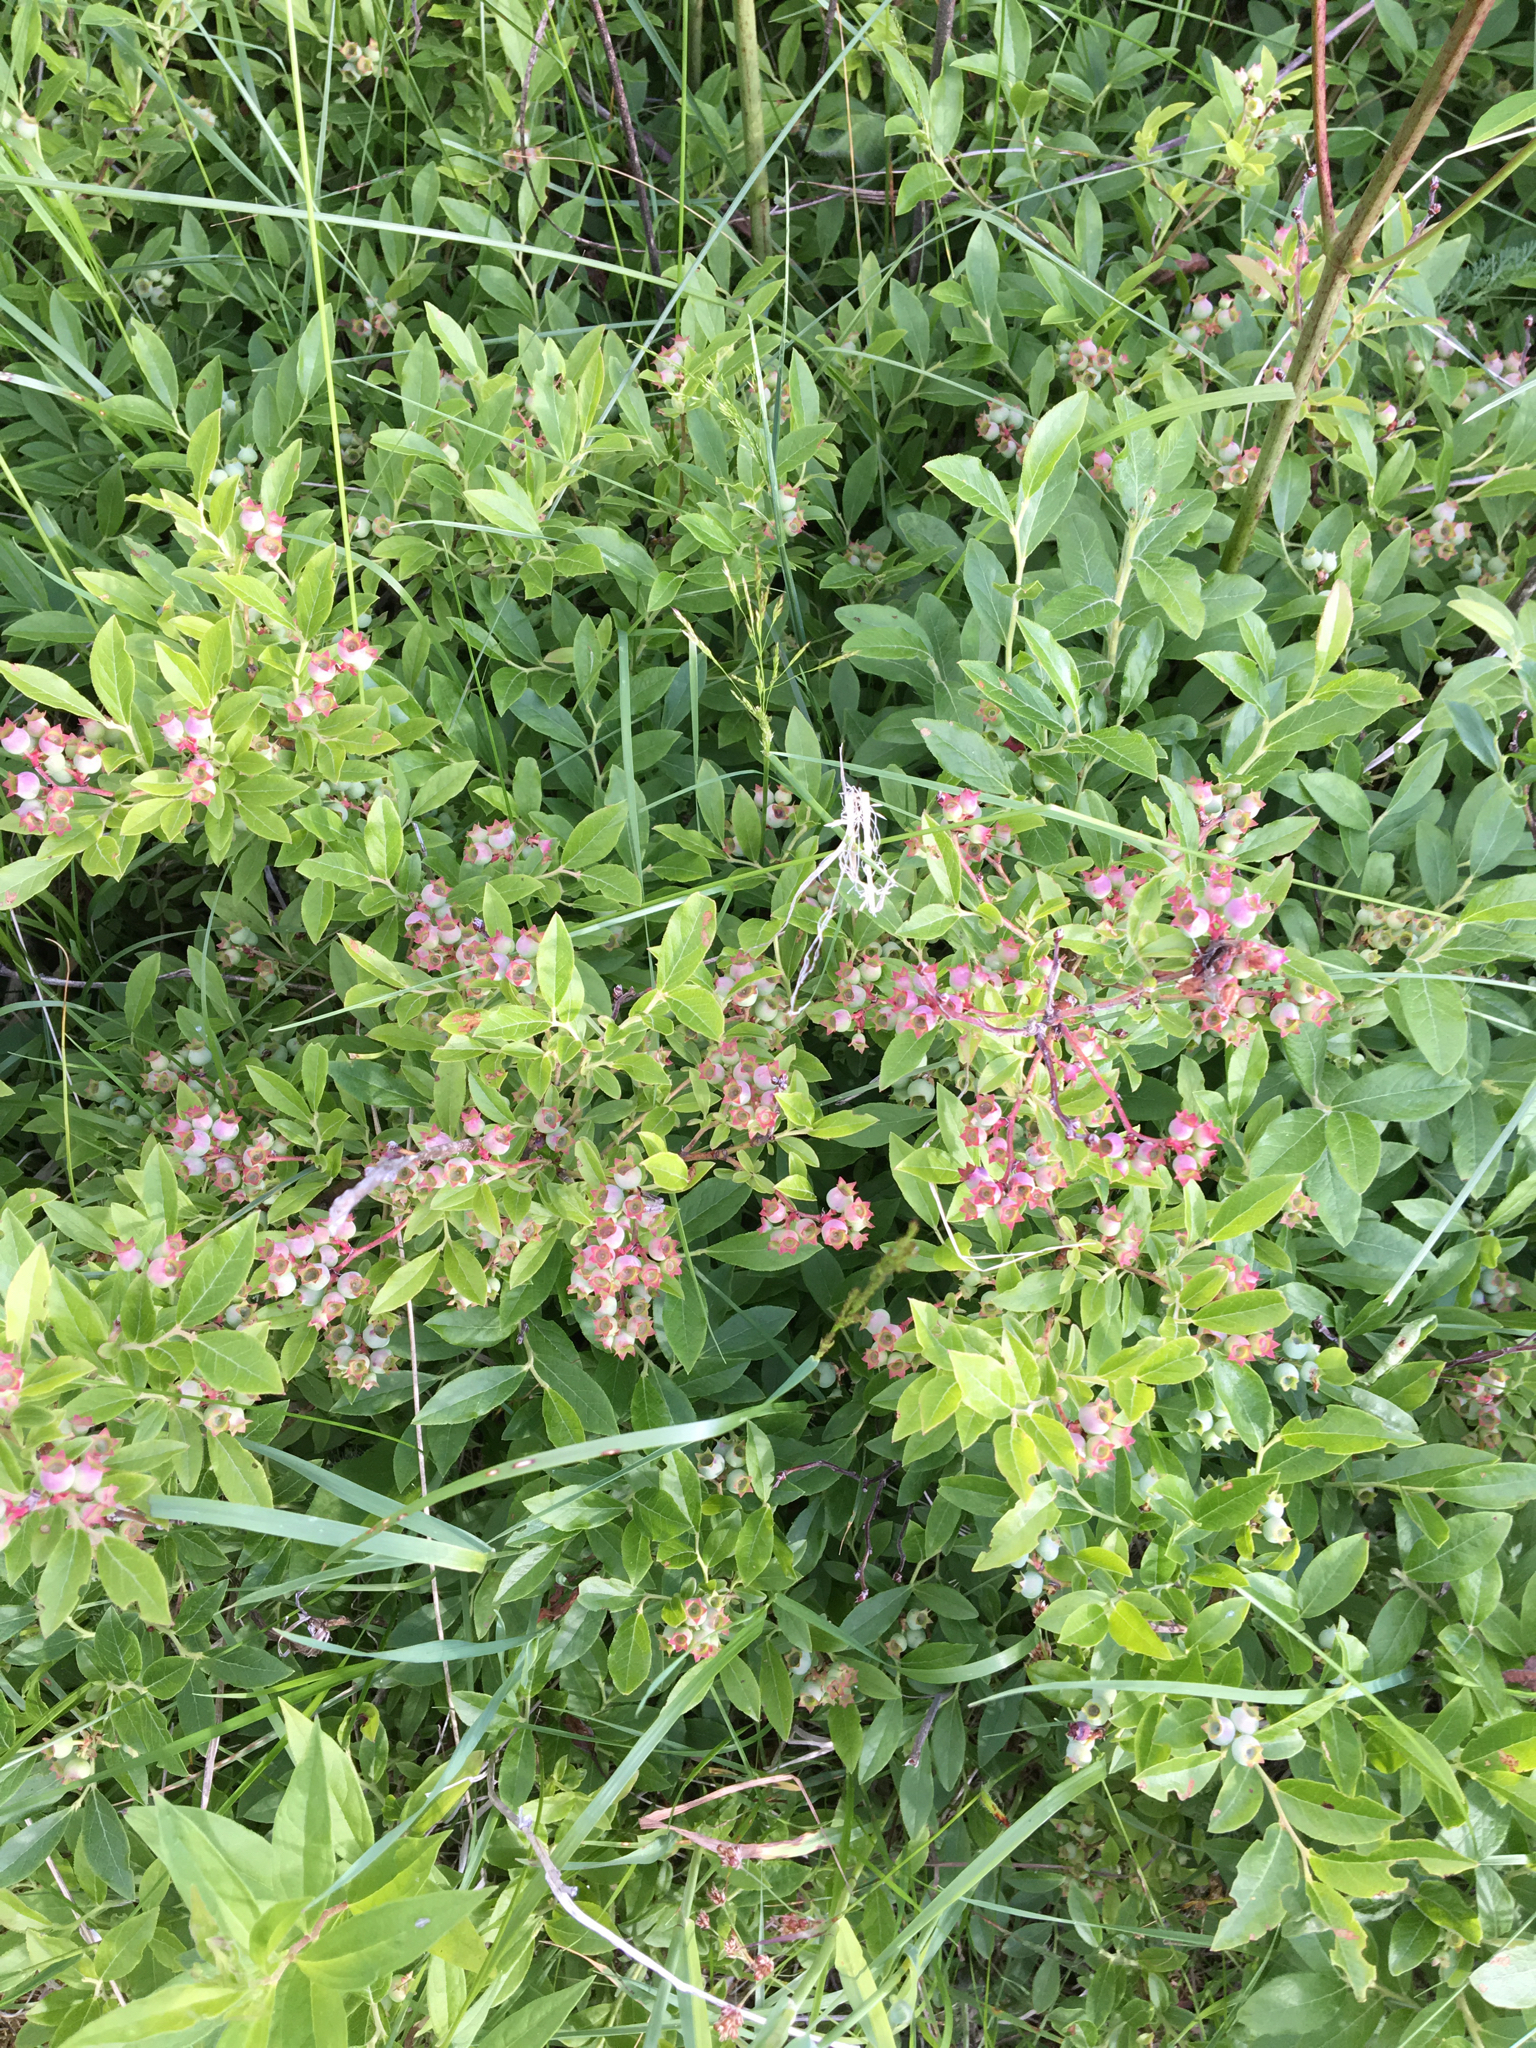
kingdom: Plantae
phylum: Tracheophyta
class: Magnoliopsida
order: Ericales
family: Ericaceae
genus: Vaccinium
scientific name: Vaccinium angustifolium
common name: Early lowbush blueberry
